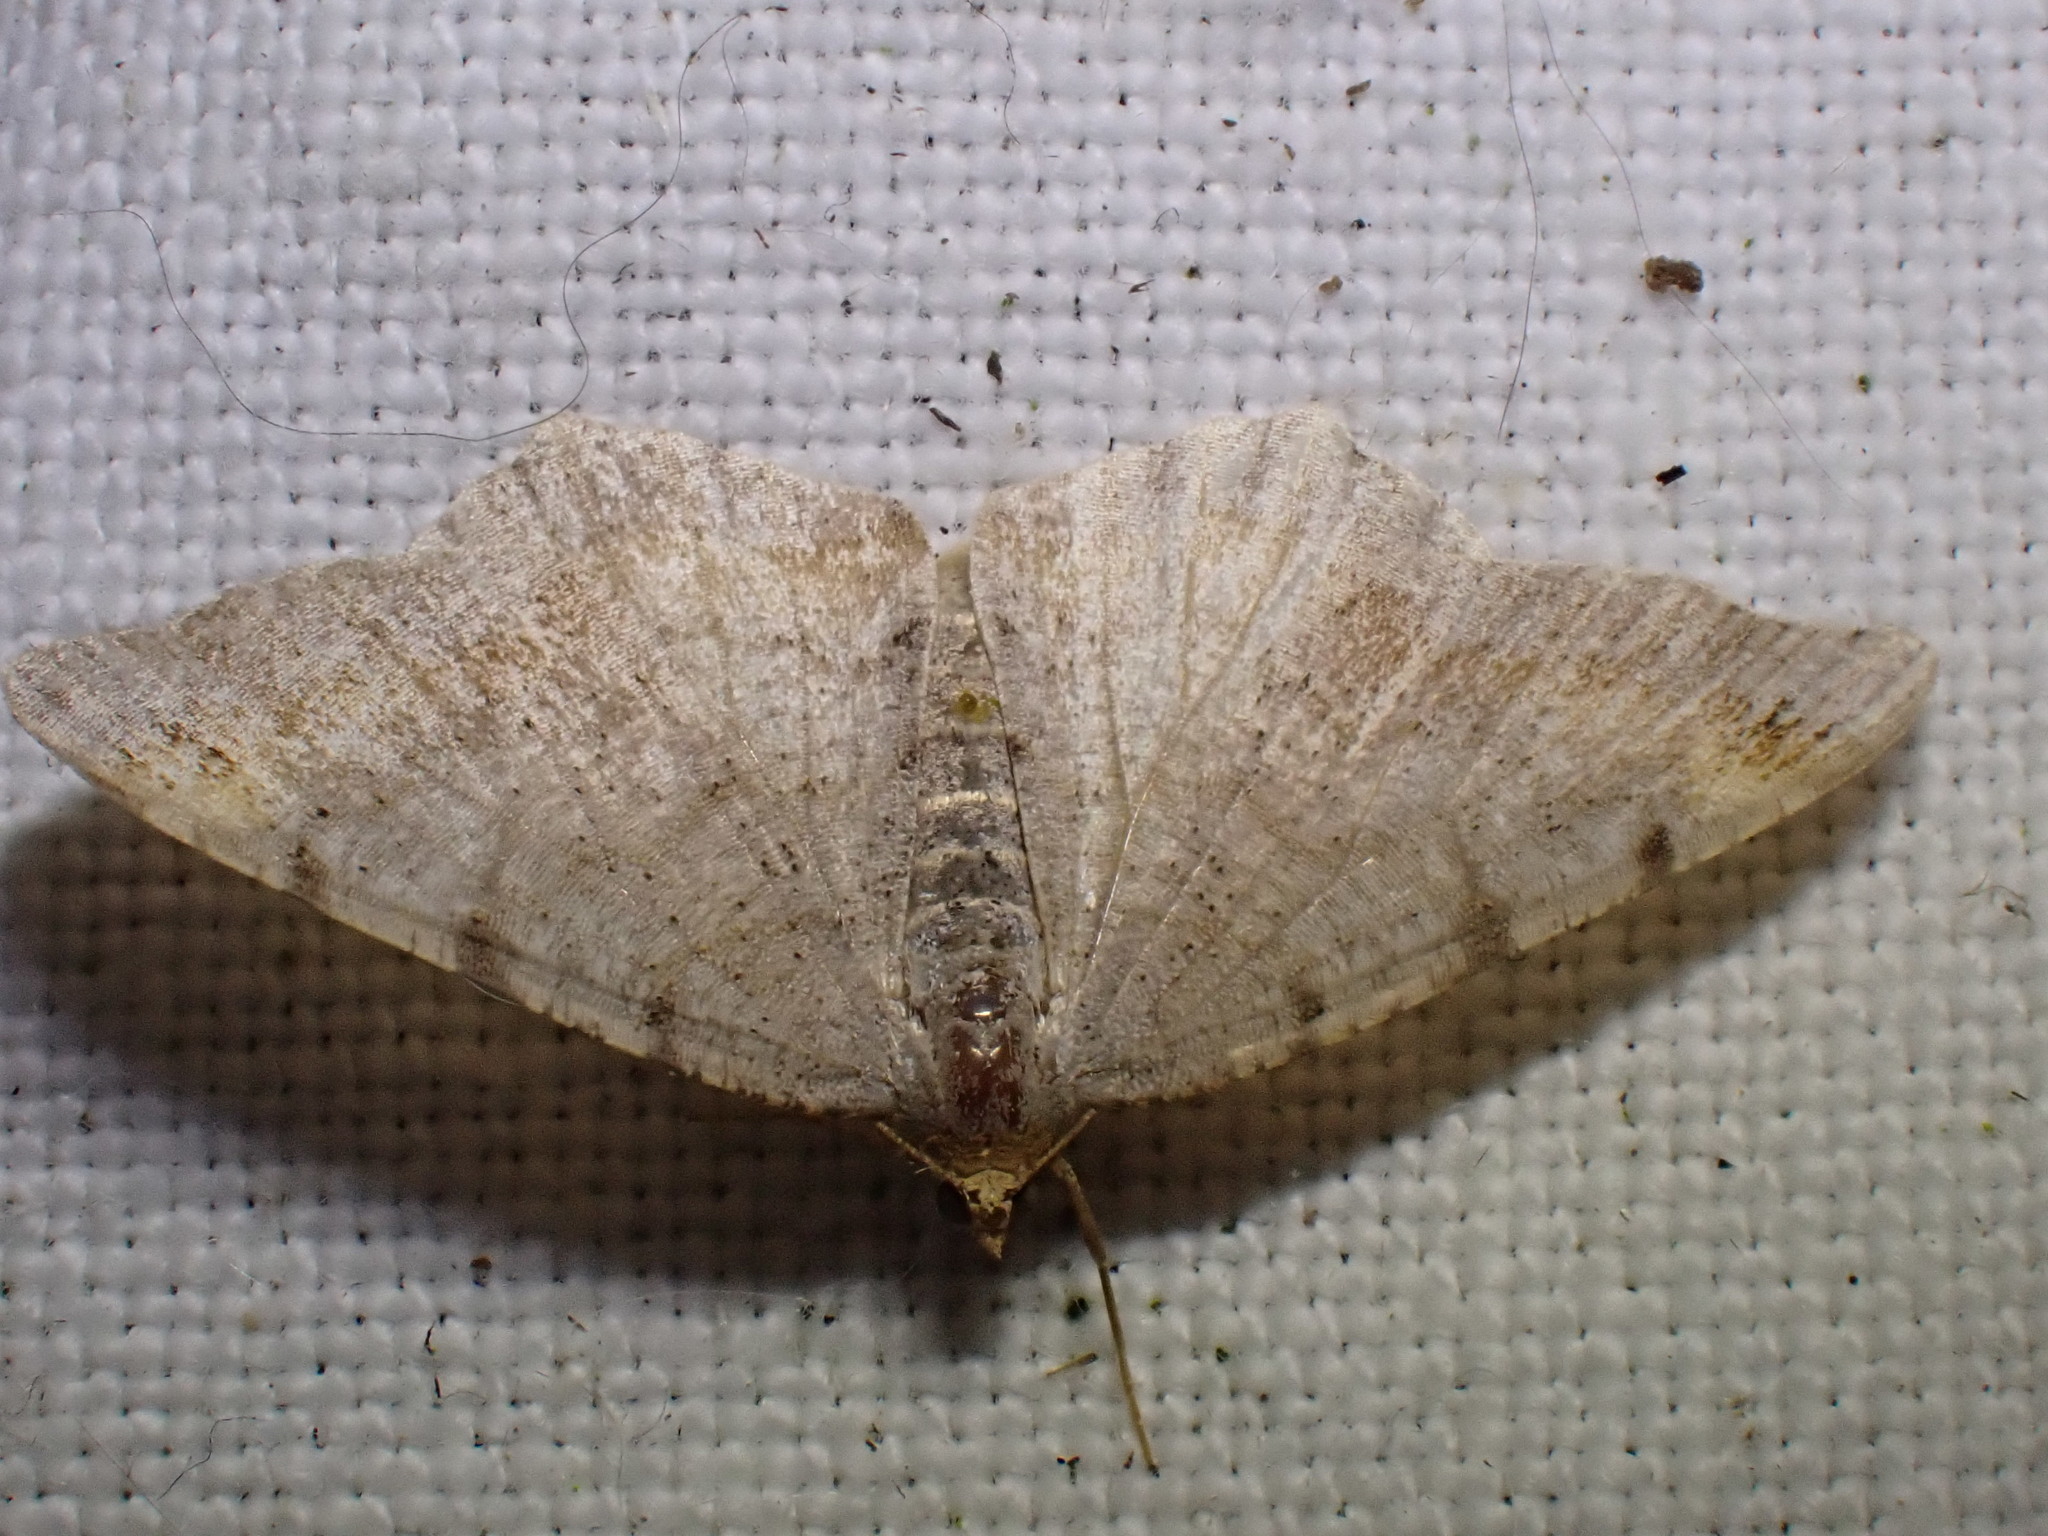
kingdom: Animalia
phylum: Arthropoda
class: Insecta
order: Lepidoptera
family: Geometridae
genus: Macaria
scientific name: Macaria liturata
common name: Tawny-barred angle
